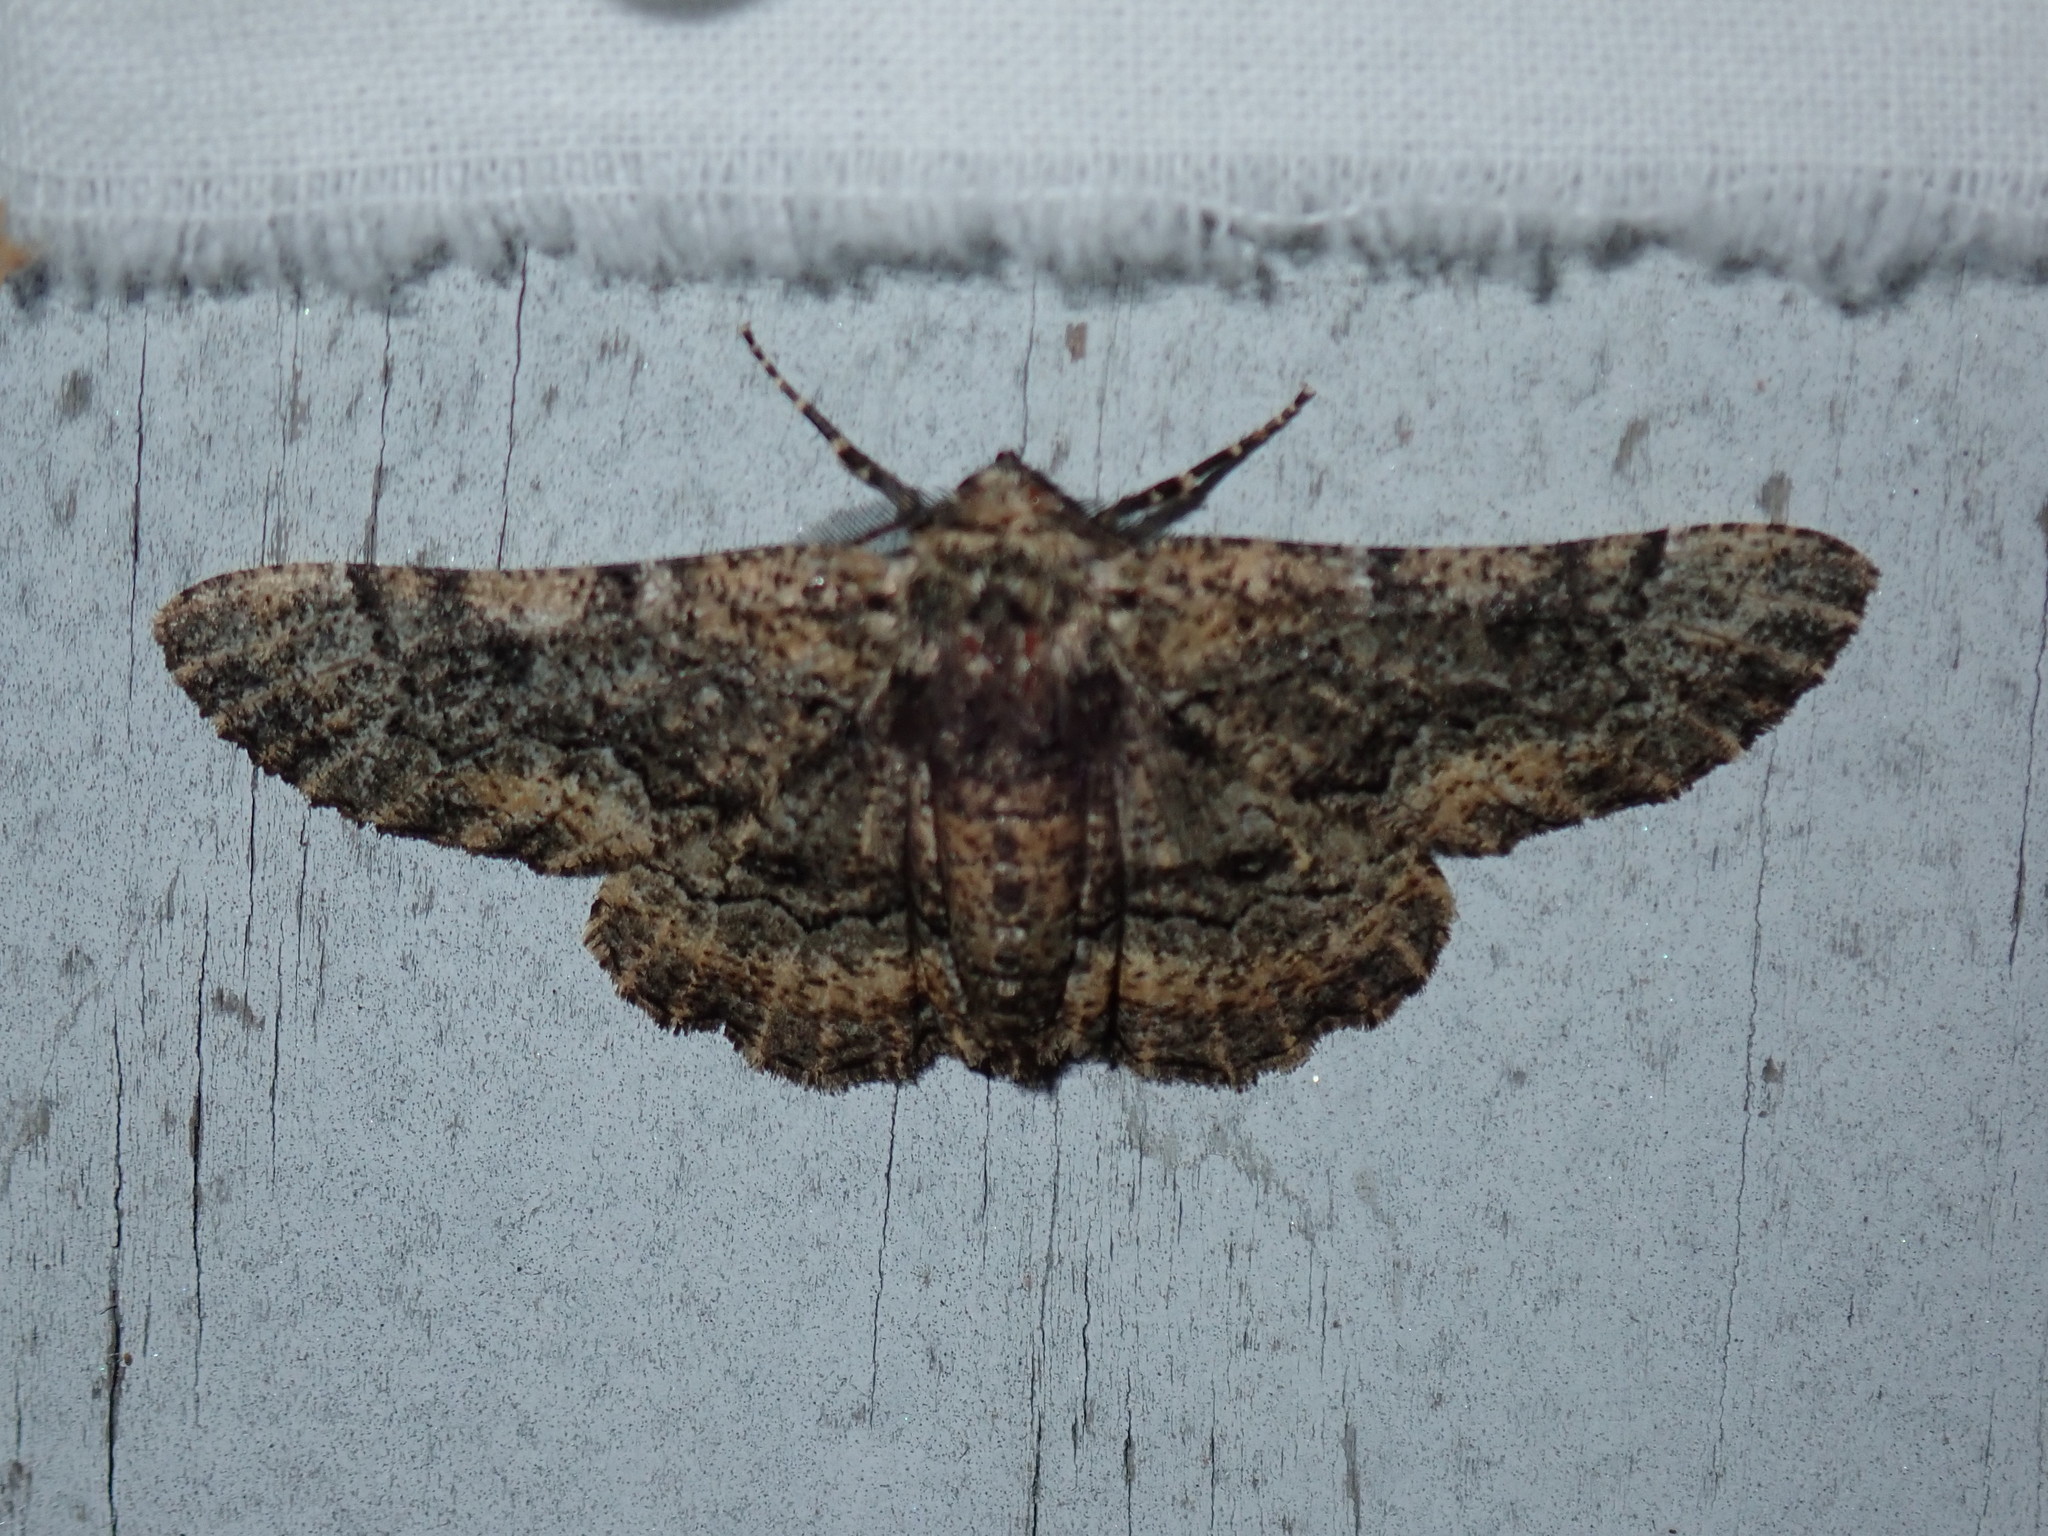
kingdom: Animalia
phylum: Arthropoda
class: Insecta
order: Lepidoptera
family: Geometridae
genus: Phaeoura
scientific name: Phaeoura quernaria
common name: Oak beauty
